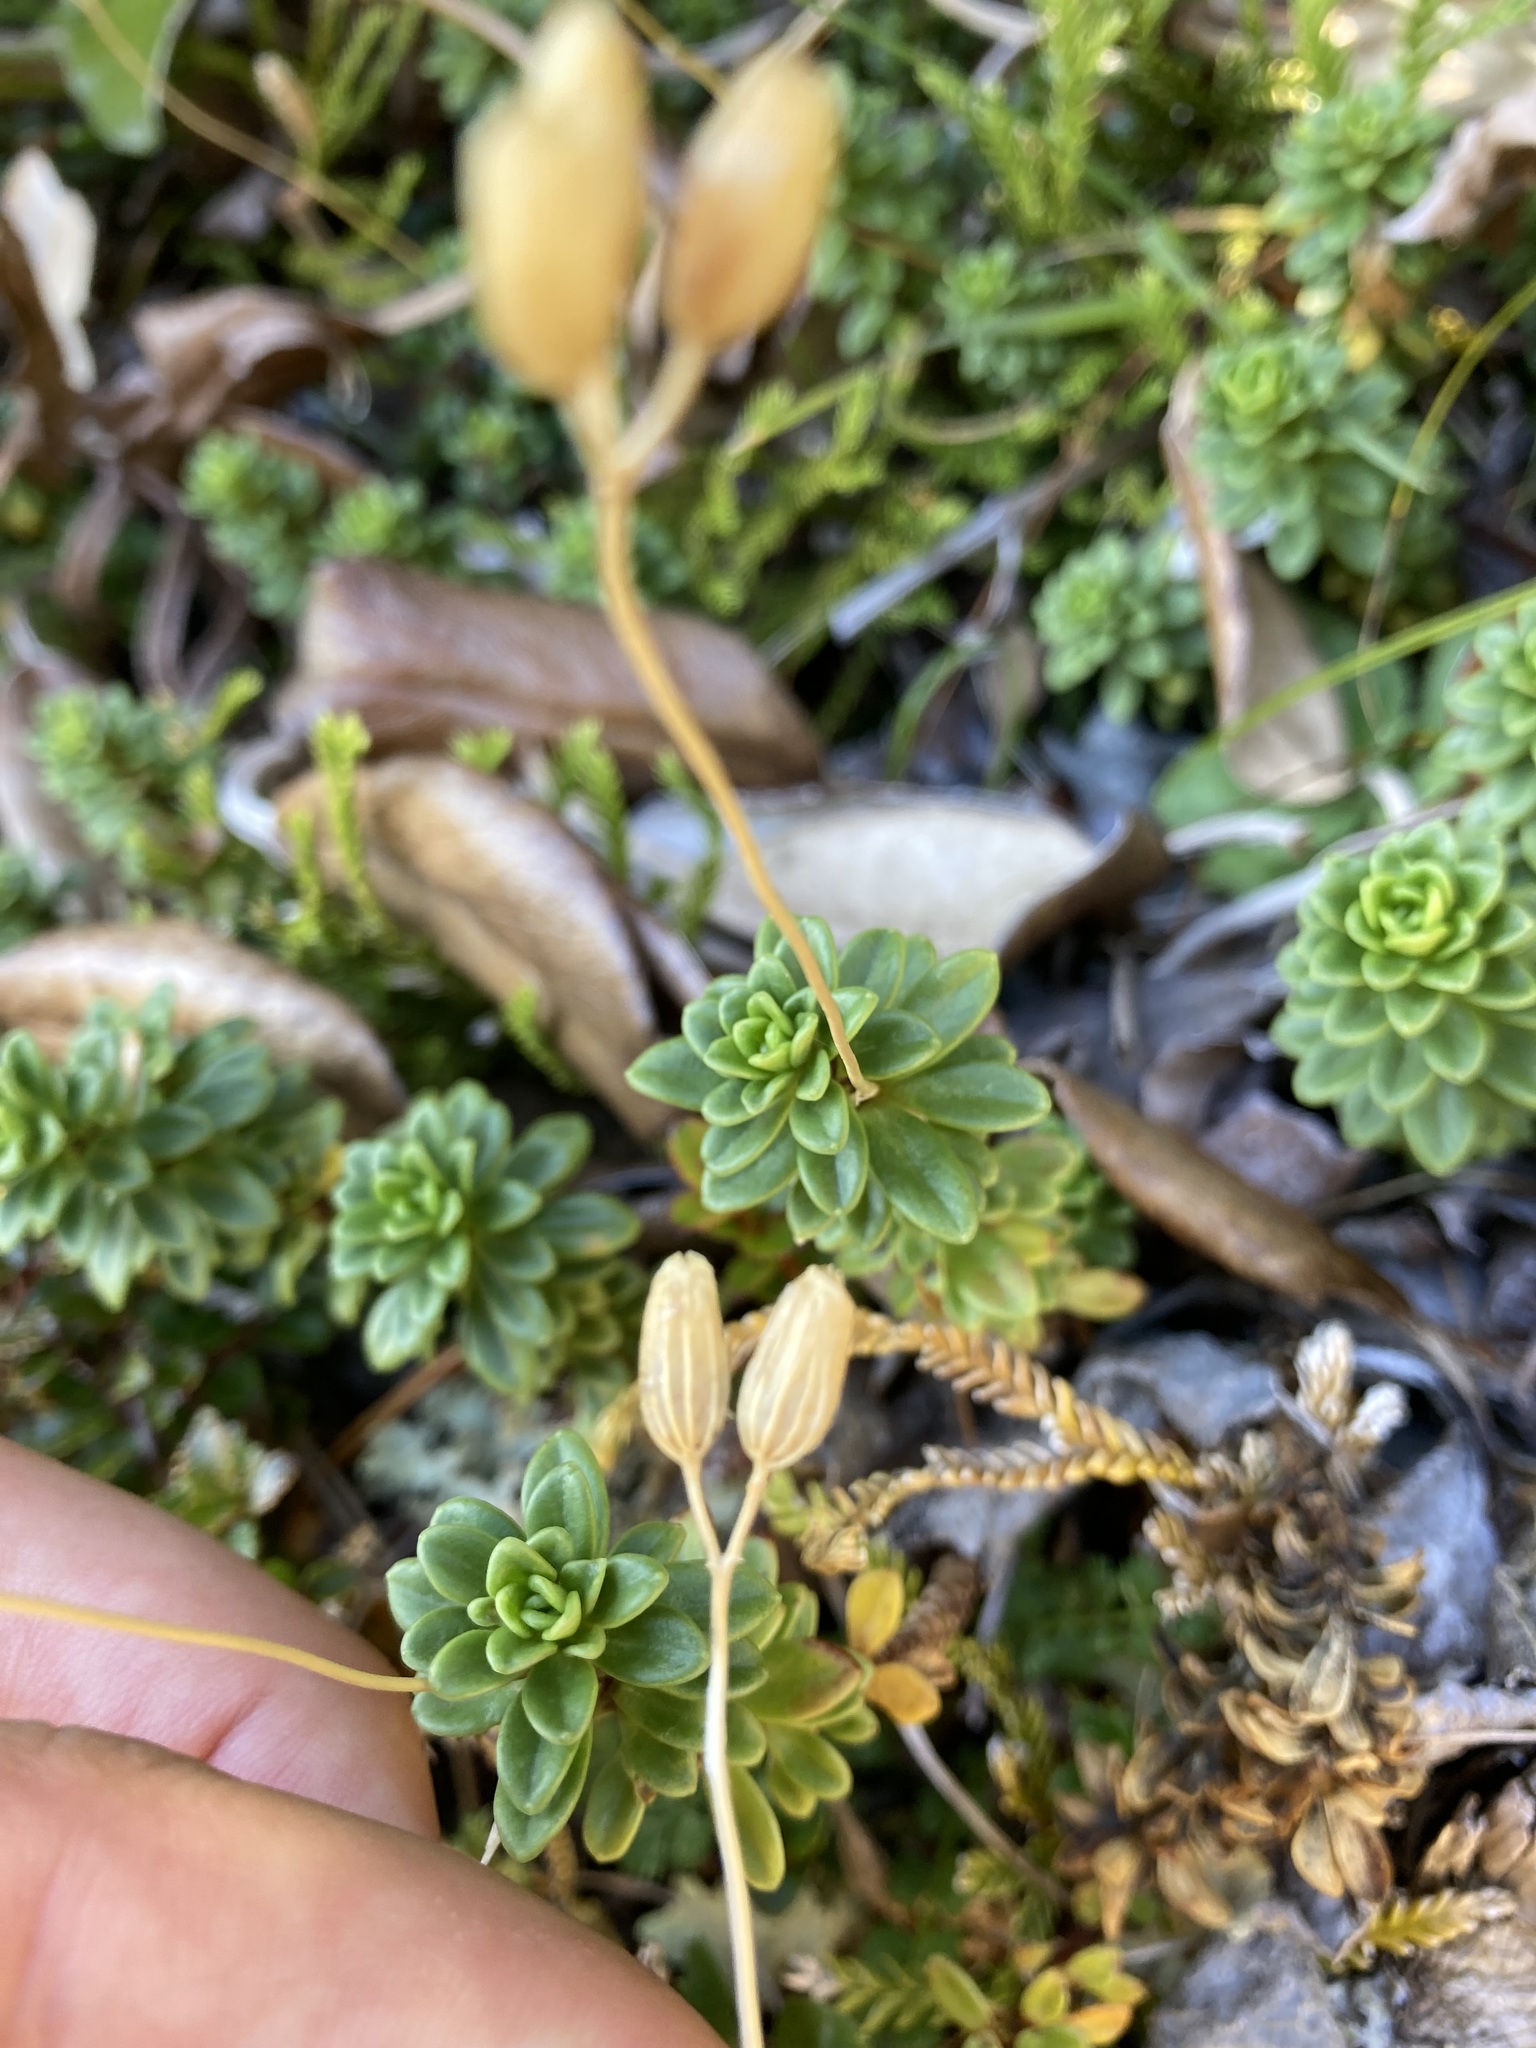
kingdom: Plantae
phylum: Tracheophyta
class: Magnoliopsida
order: Asterales
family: Stylidiaceae
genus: Forstera
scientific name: Forstera tenella
